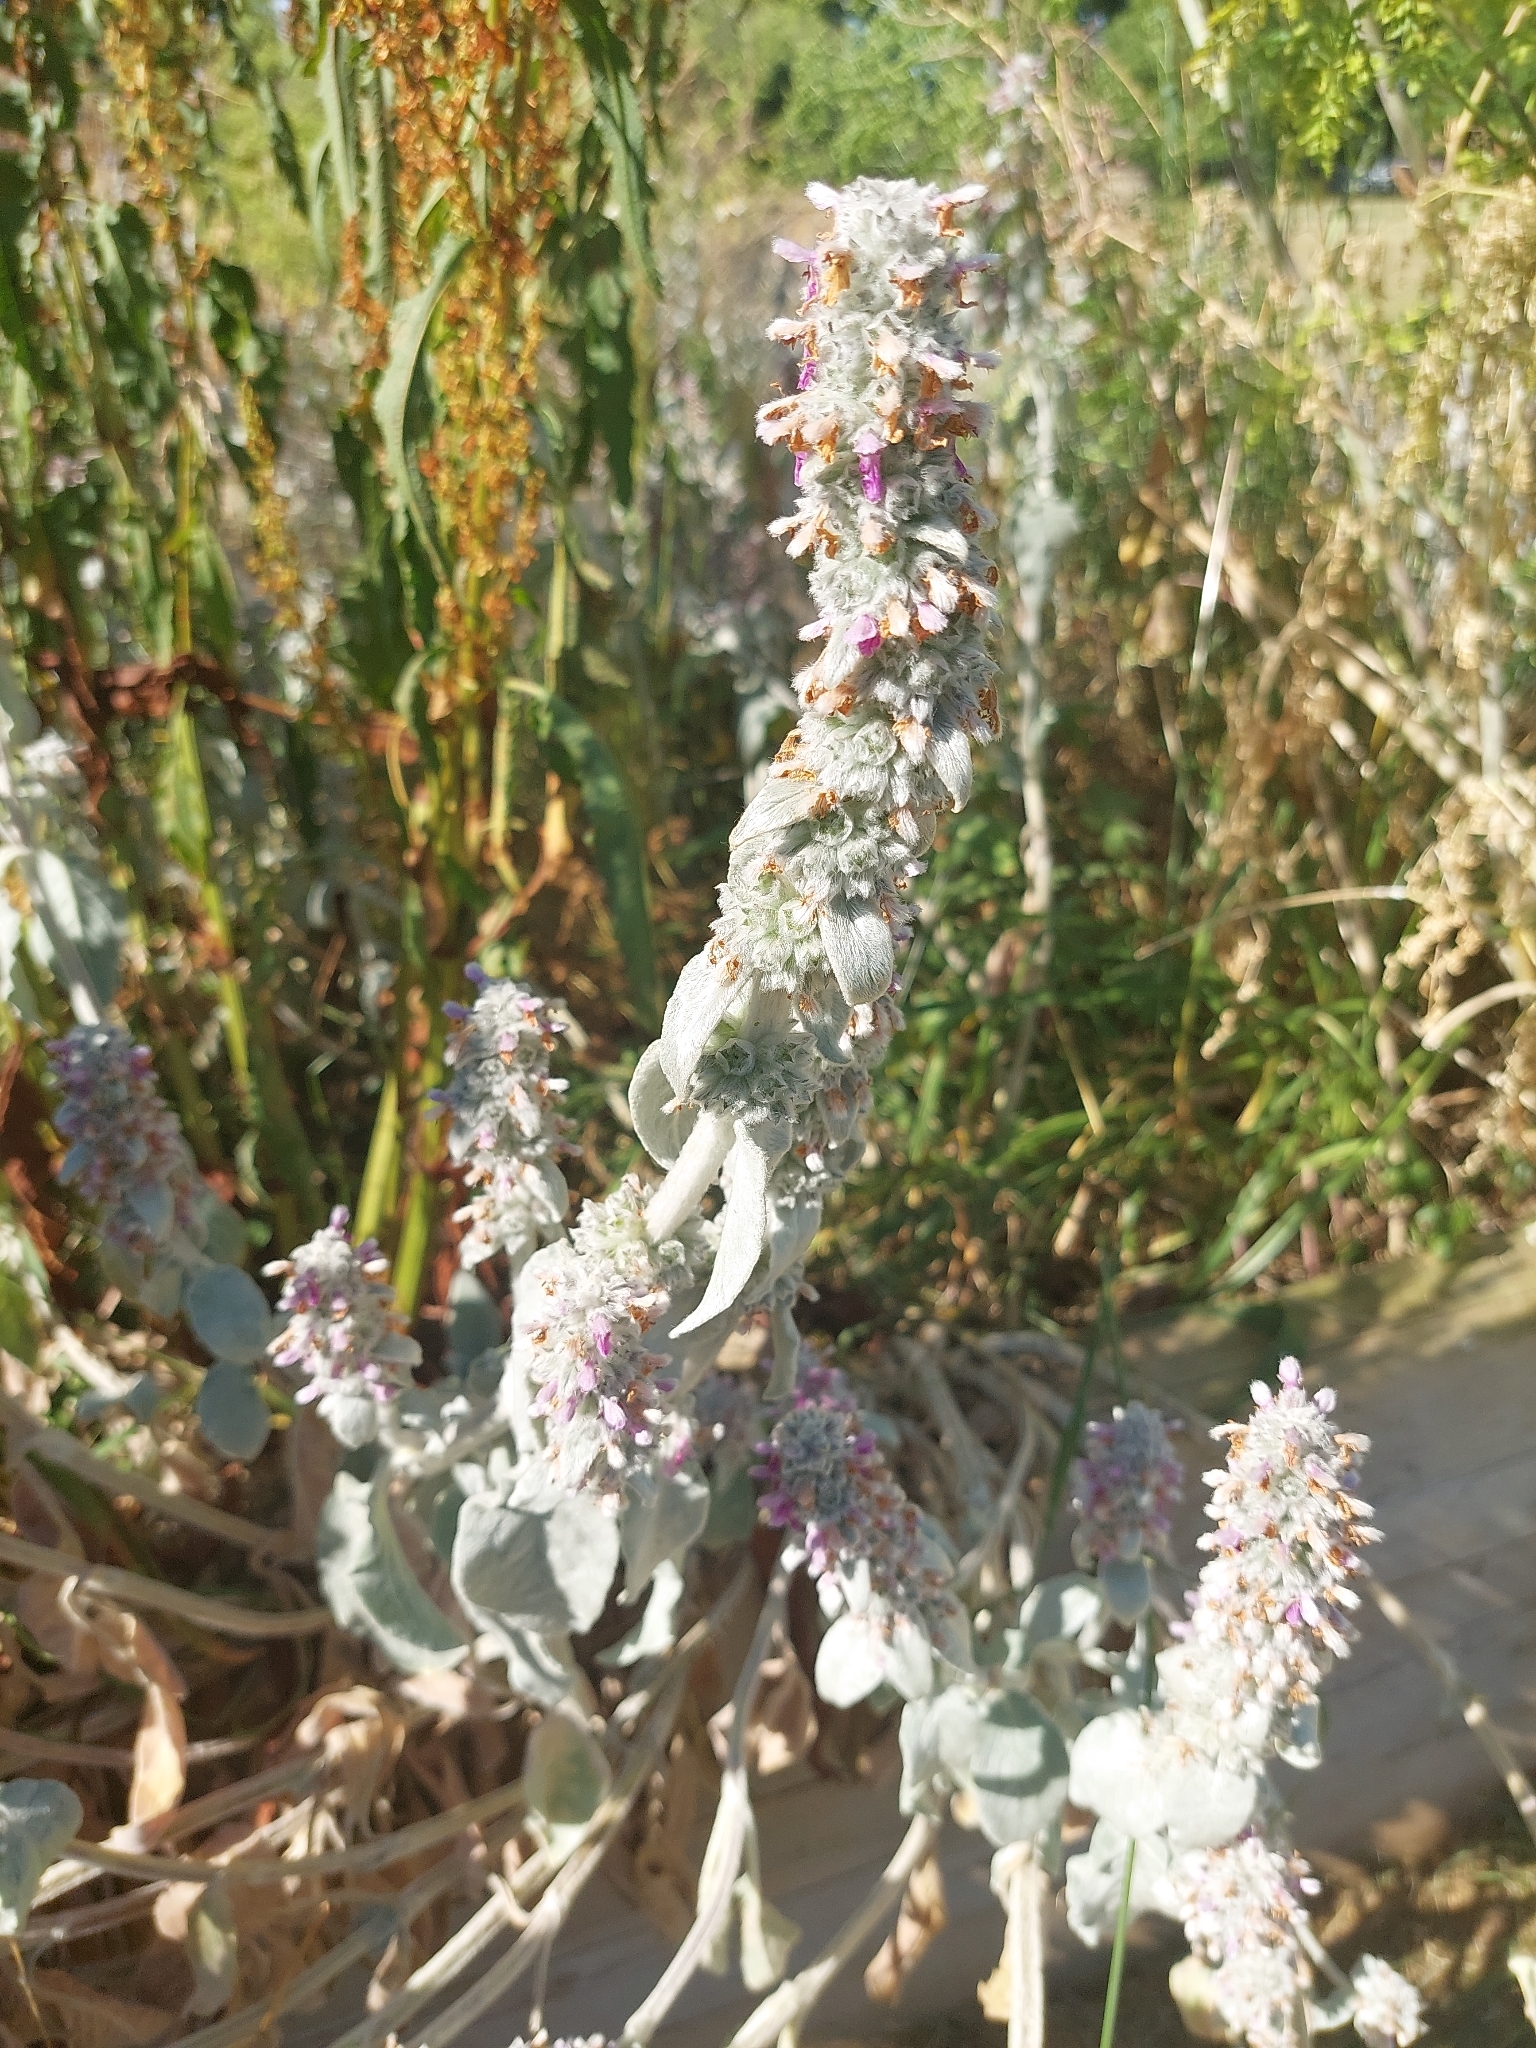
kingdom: Plantae
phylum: Tracheophyta
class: Magnoliopsida
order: Lamiales
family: Lamiaceae
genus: Stachys
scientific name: Stachys byzantina
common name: Lamb's-ear
